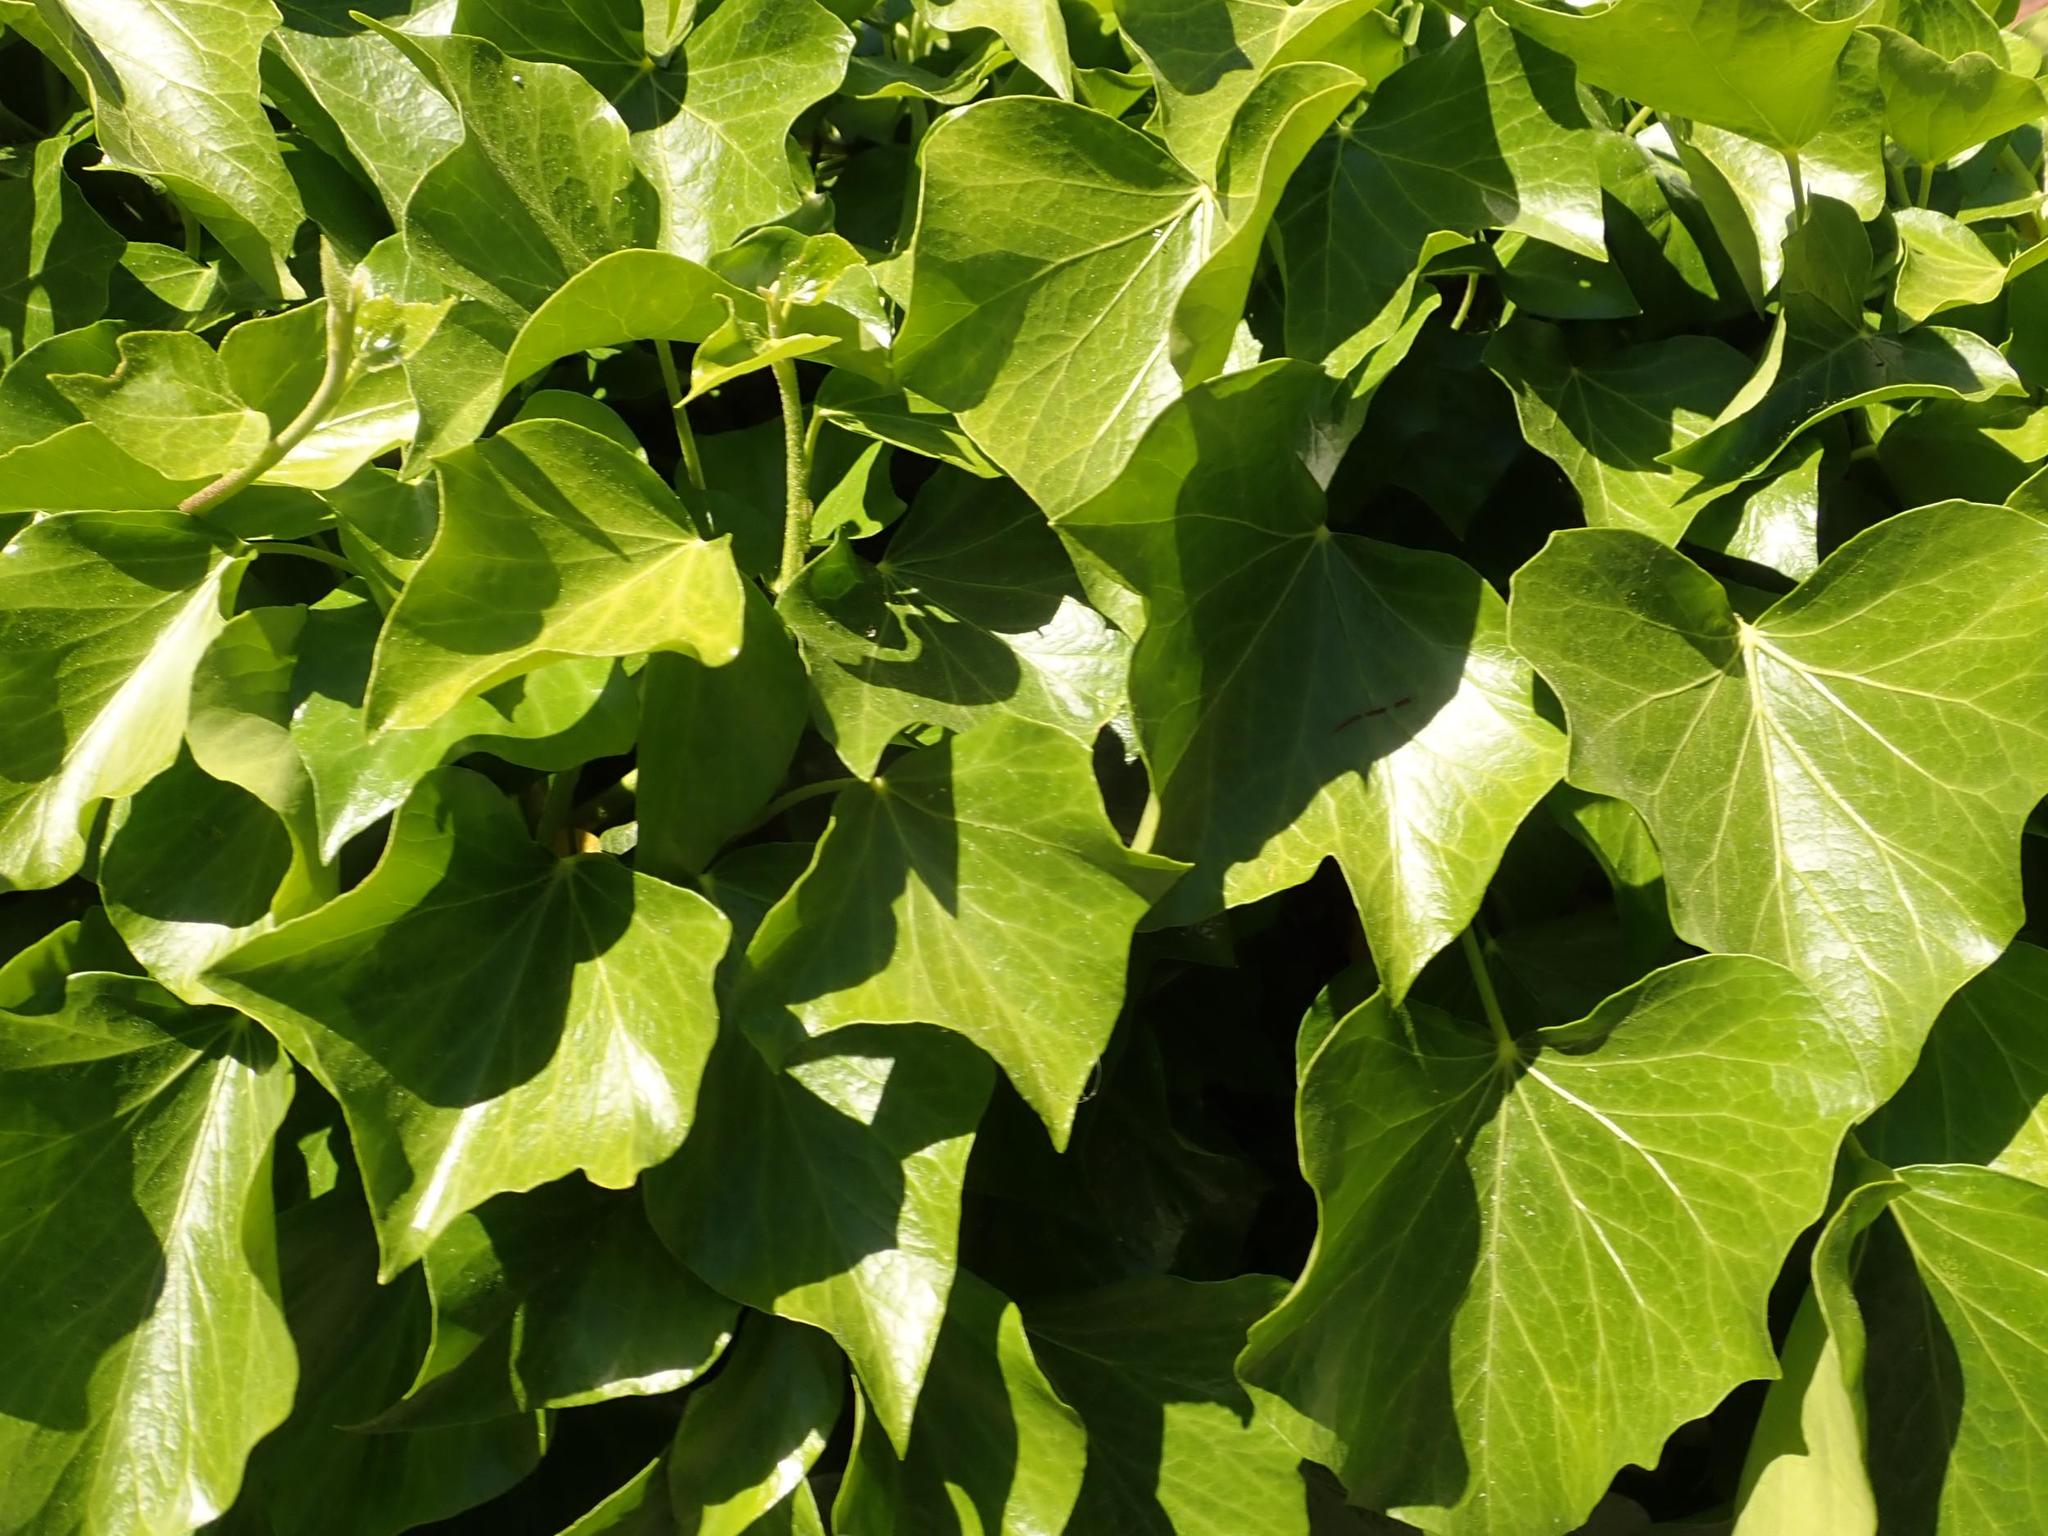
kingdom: Plantae
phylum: Tracheophyta
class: Magnoliopsida
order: Apiales
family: Araliaceae
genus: Hedera
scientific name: Hedera helix
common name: Ivy
